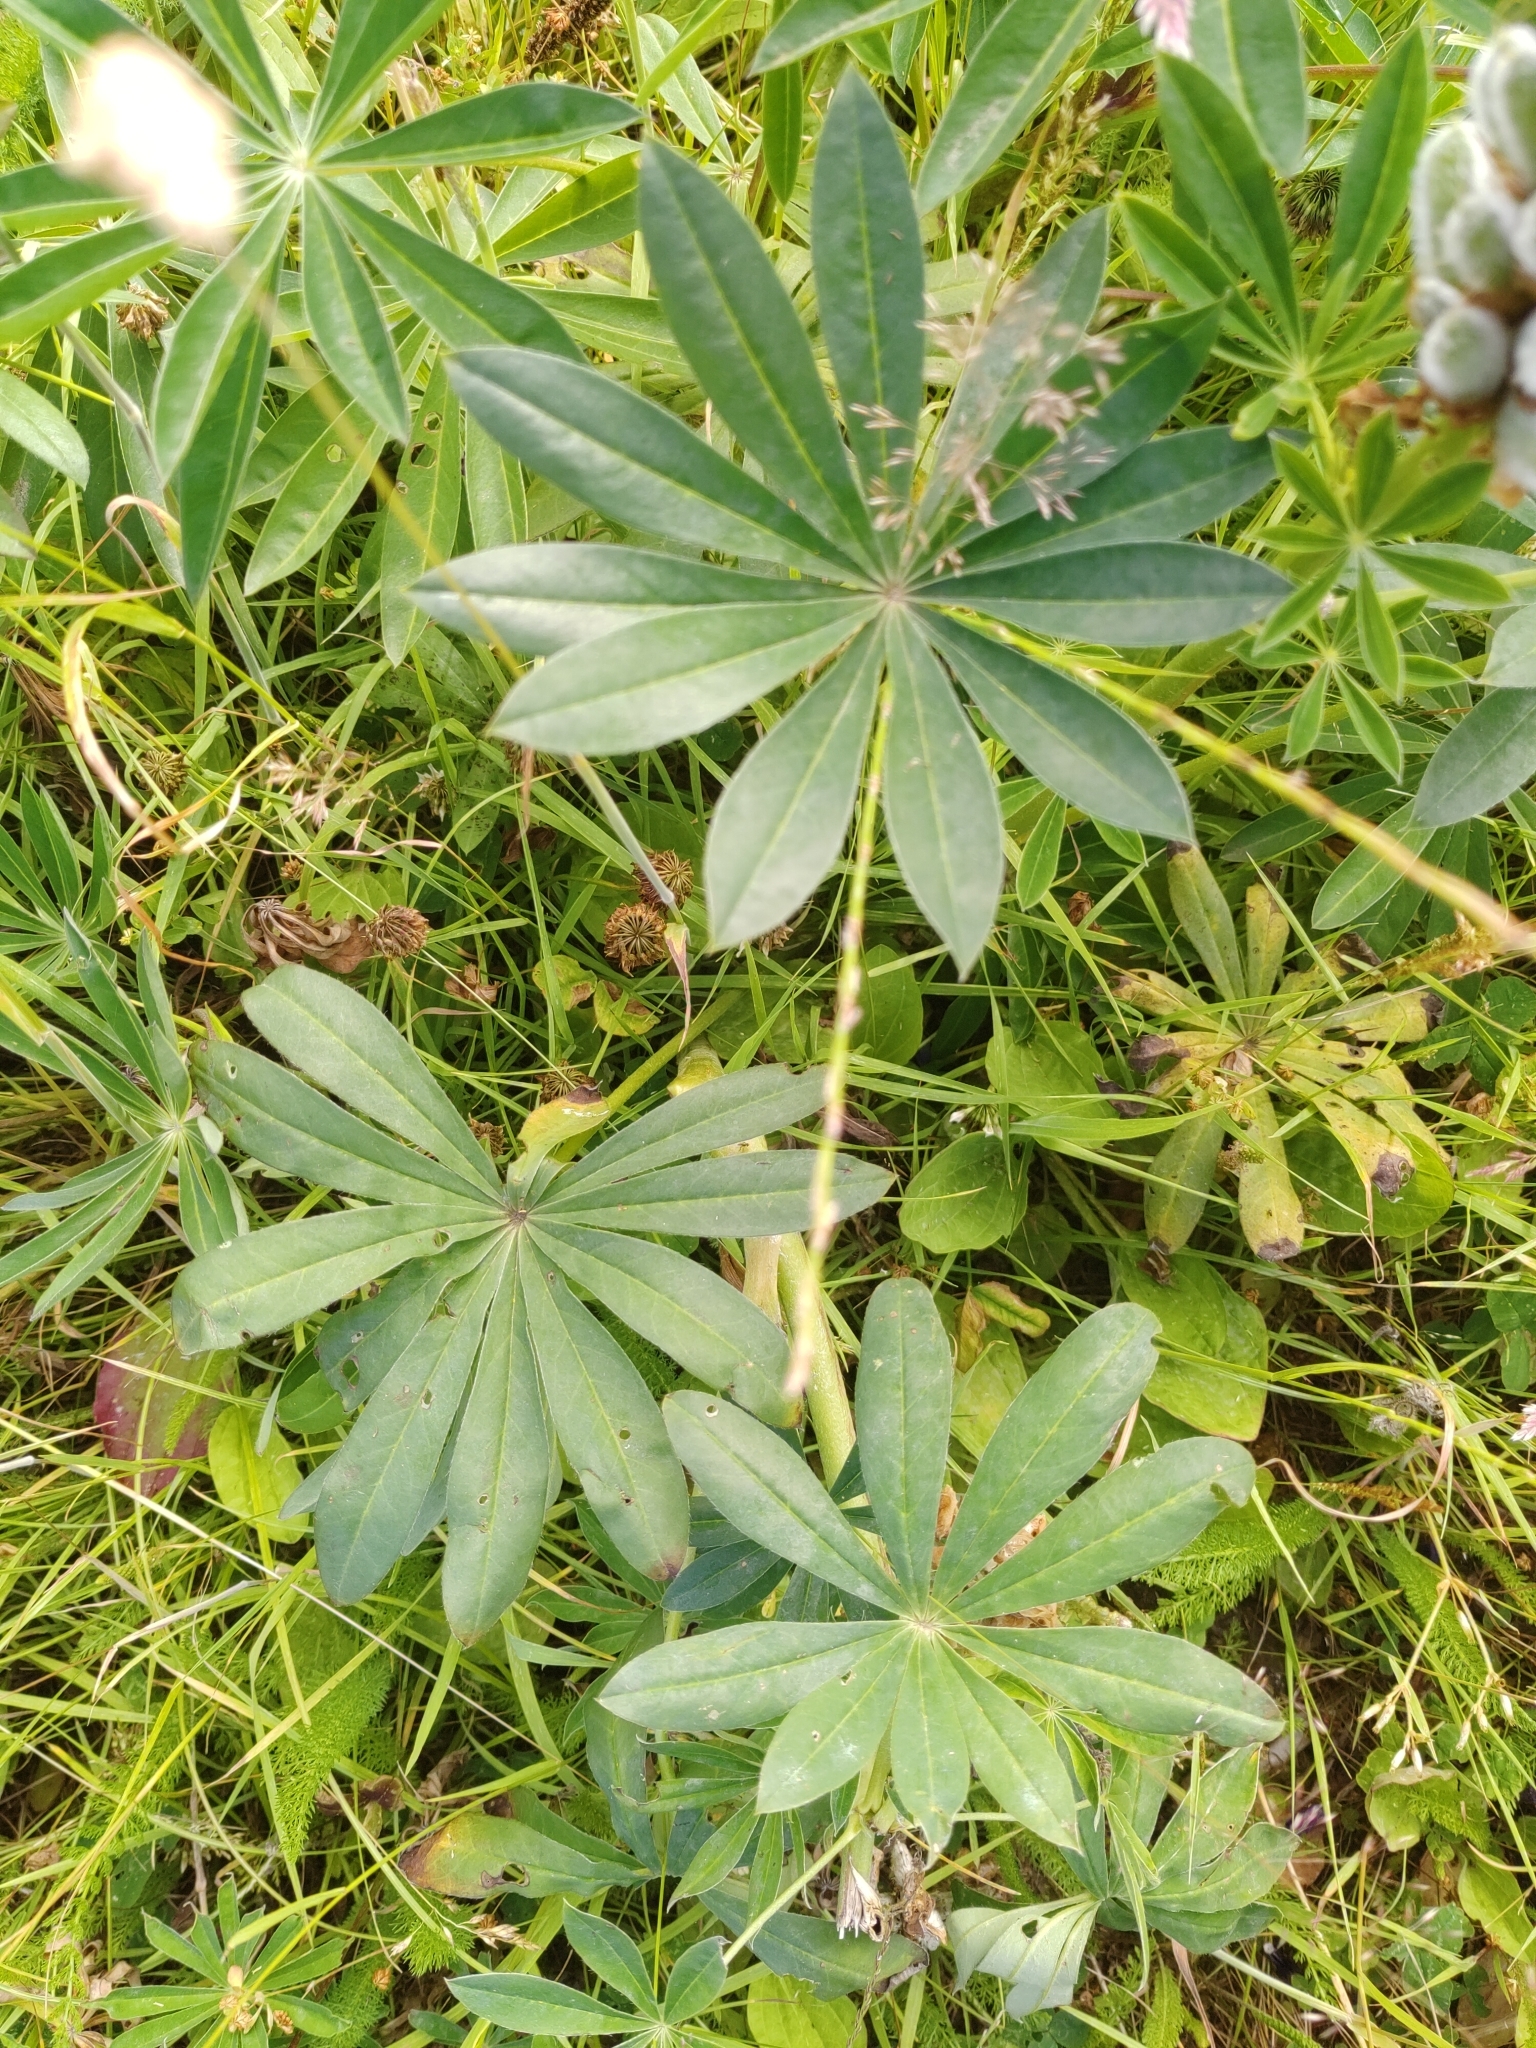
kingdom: Plantae
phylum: Tracheophyta
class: Magnoliopsida
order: Fabales
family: Fabaceae
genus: Lupinus
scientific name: Lupinus polyphyllus
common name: Garden lupin
